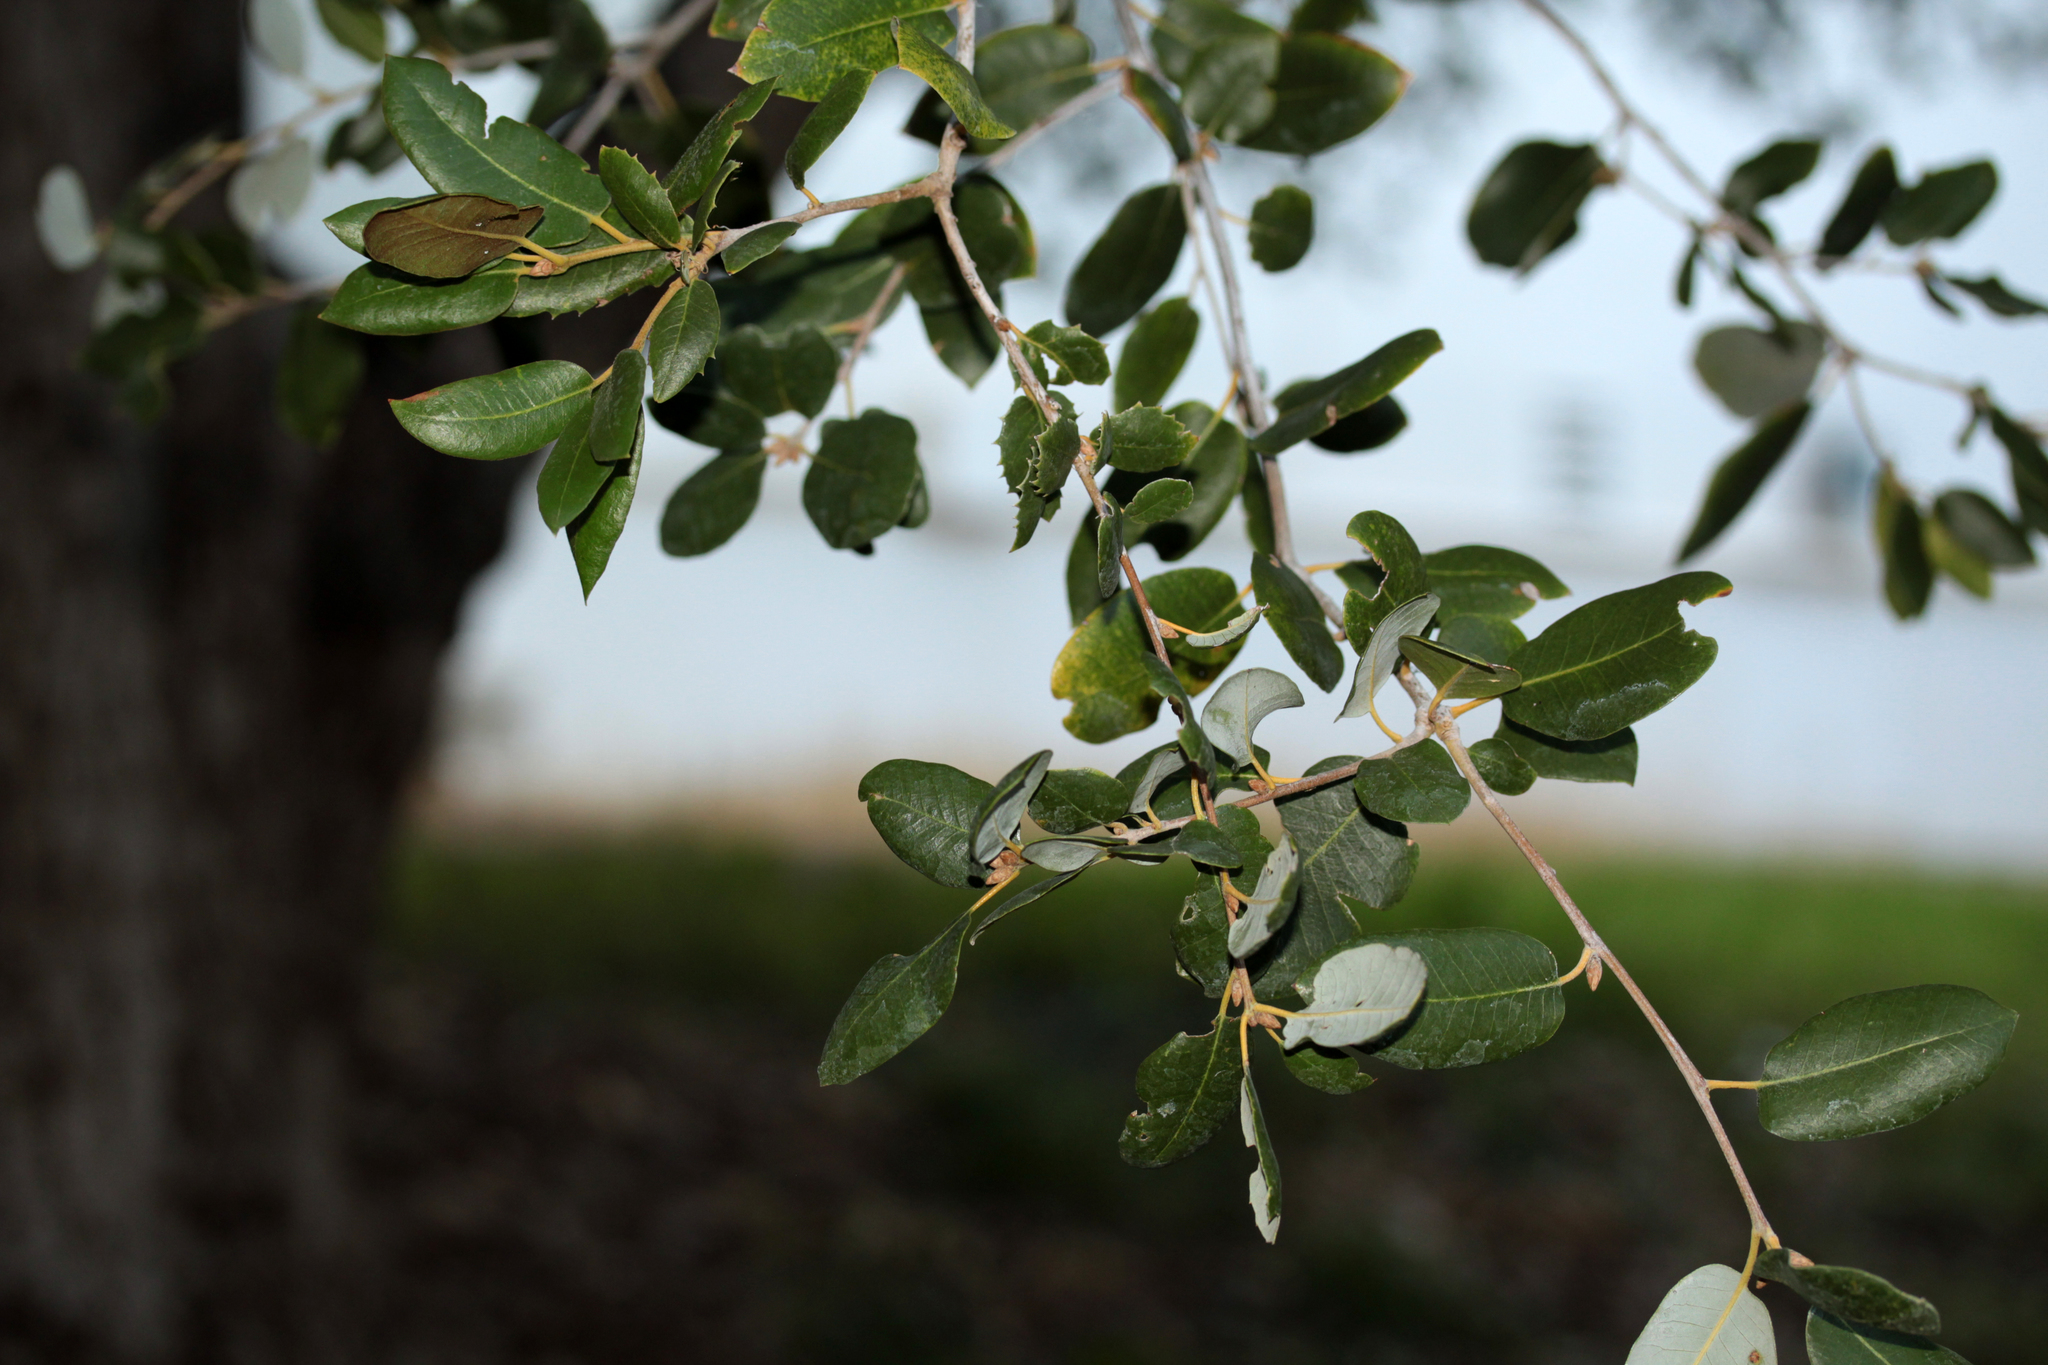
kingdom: Plantae
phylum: Tracheophyta
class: Magnoliopsida
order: Fagales
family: Fagaceae
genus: Quercus
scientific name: Quercus chrysolepis
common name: Canyon live oak
